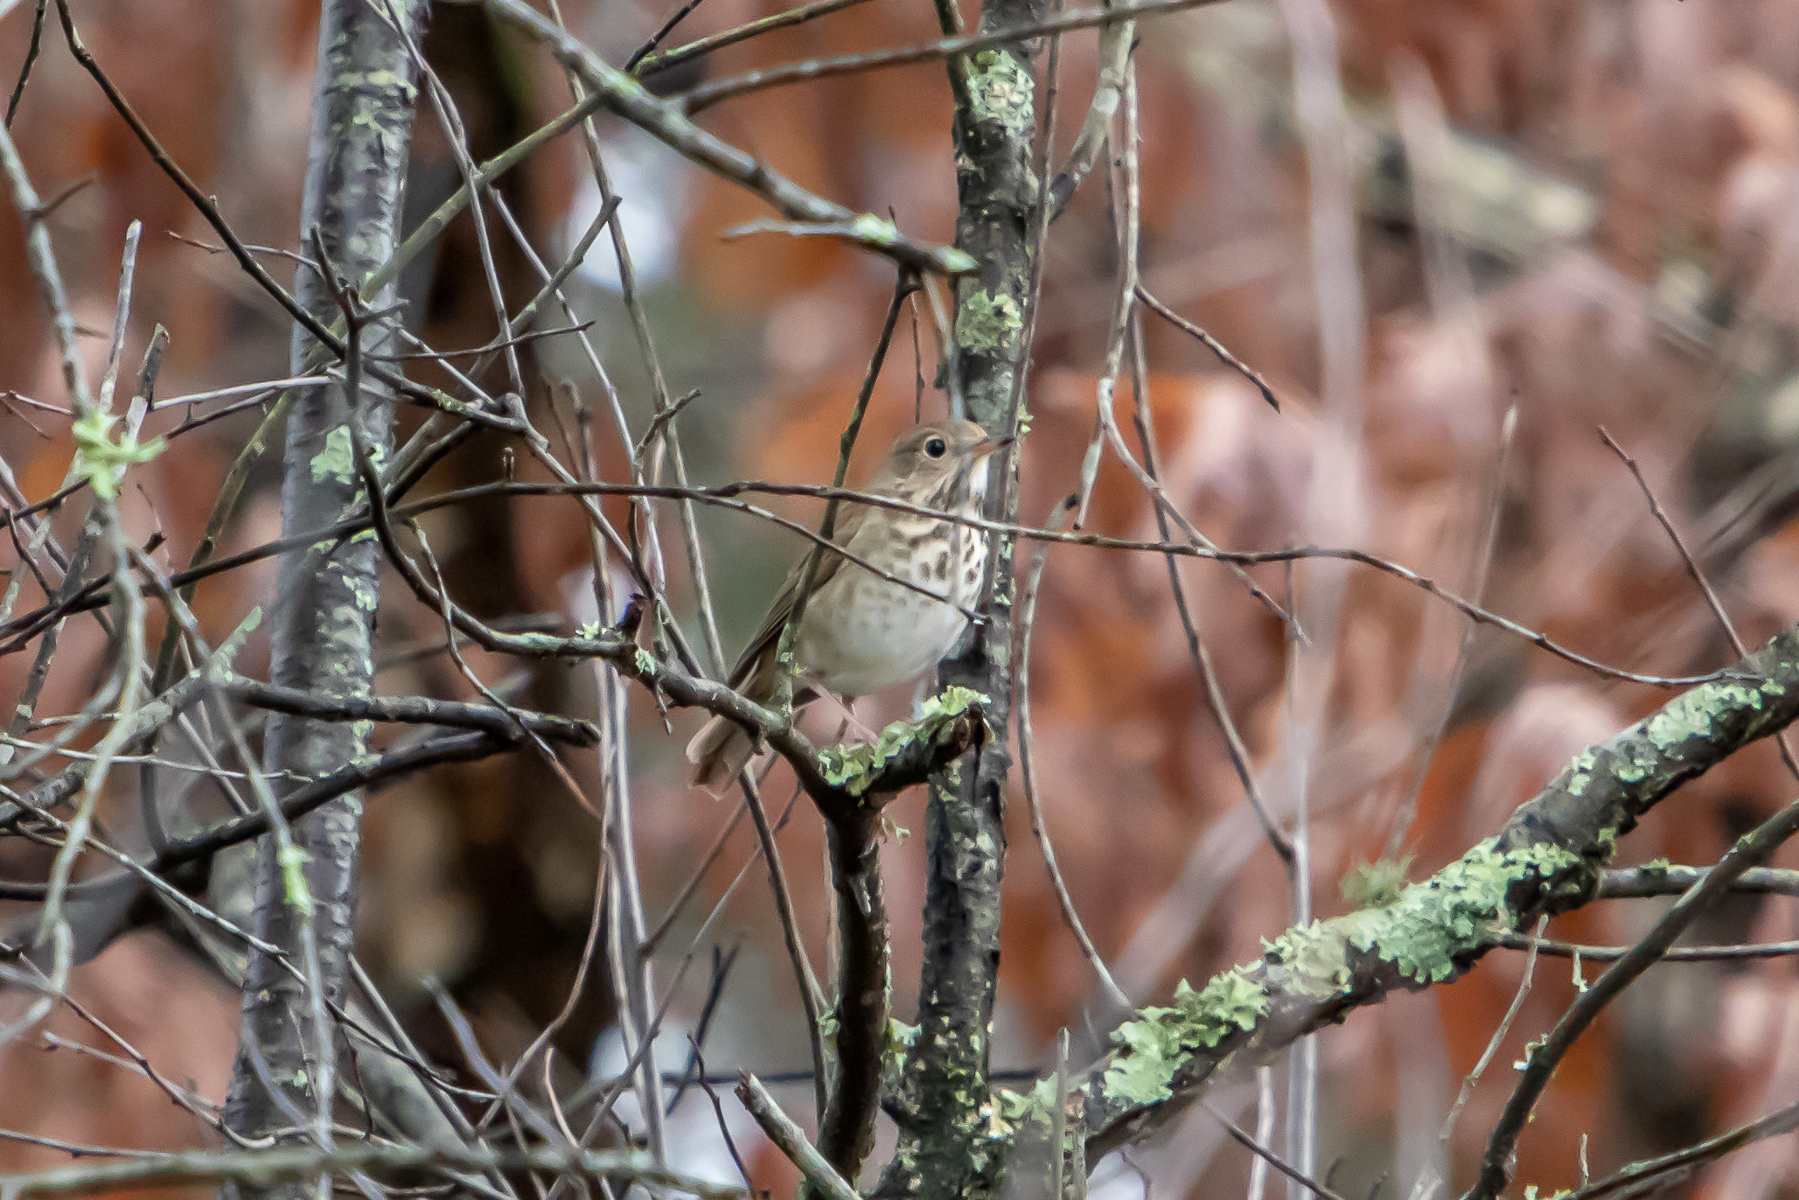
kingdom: Animalia
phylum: Chordata
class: Aves
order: Passeriformes
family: Turdidae
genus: Catharus
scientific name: Catharus guttatus
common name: Hermit thrush
